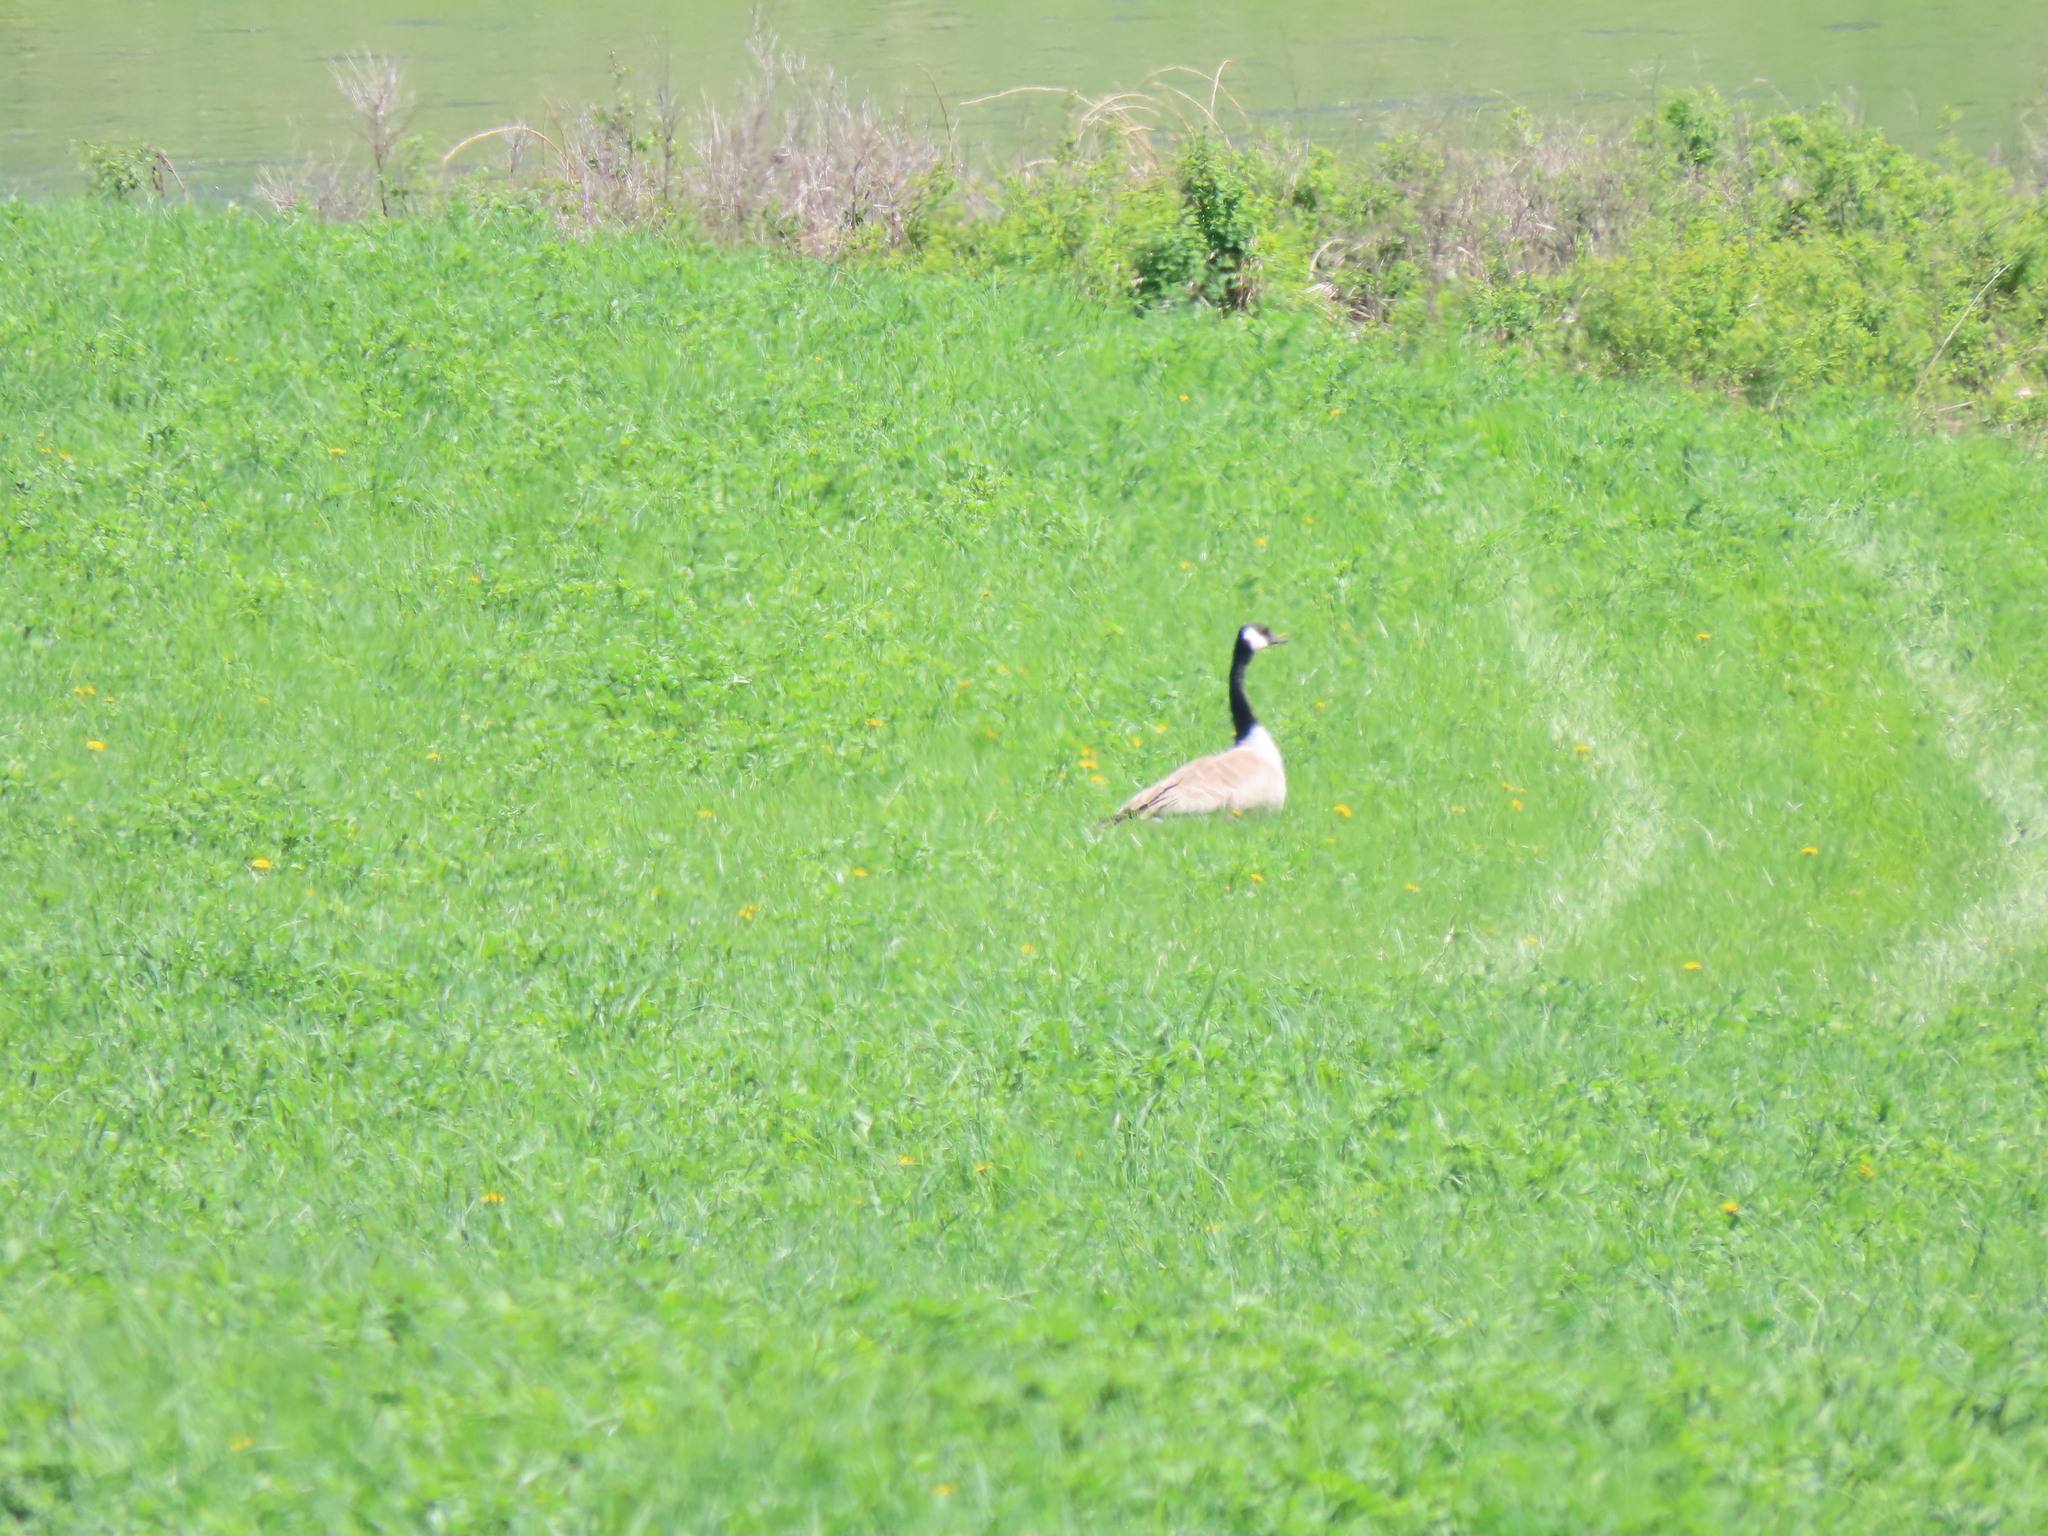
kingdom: Animalia
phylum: Chordata
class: Aves
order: Anseriformes
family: Anatidae
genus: Branta
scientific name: Branta canadensis
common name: Canada goose
